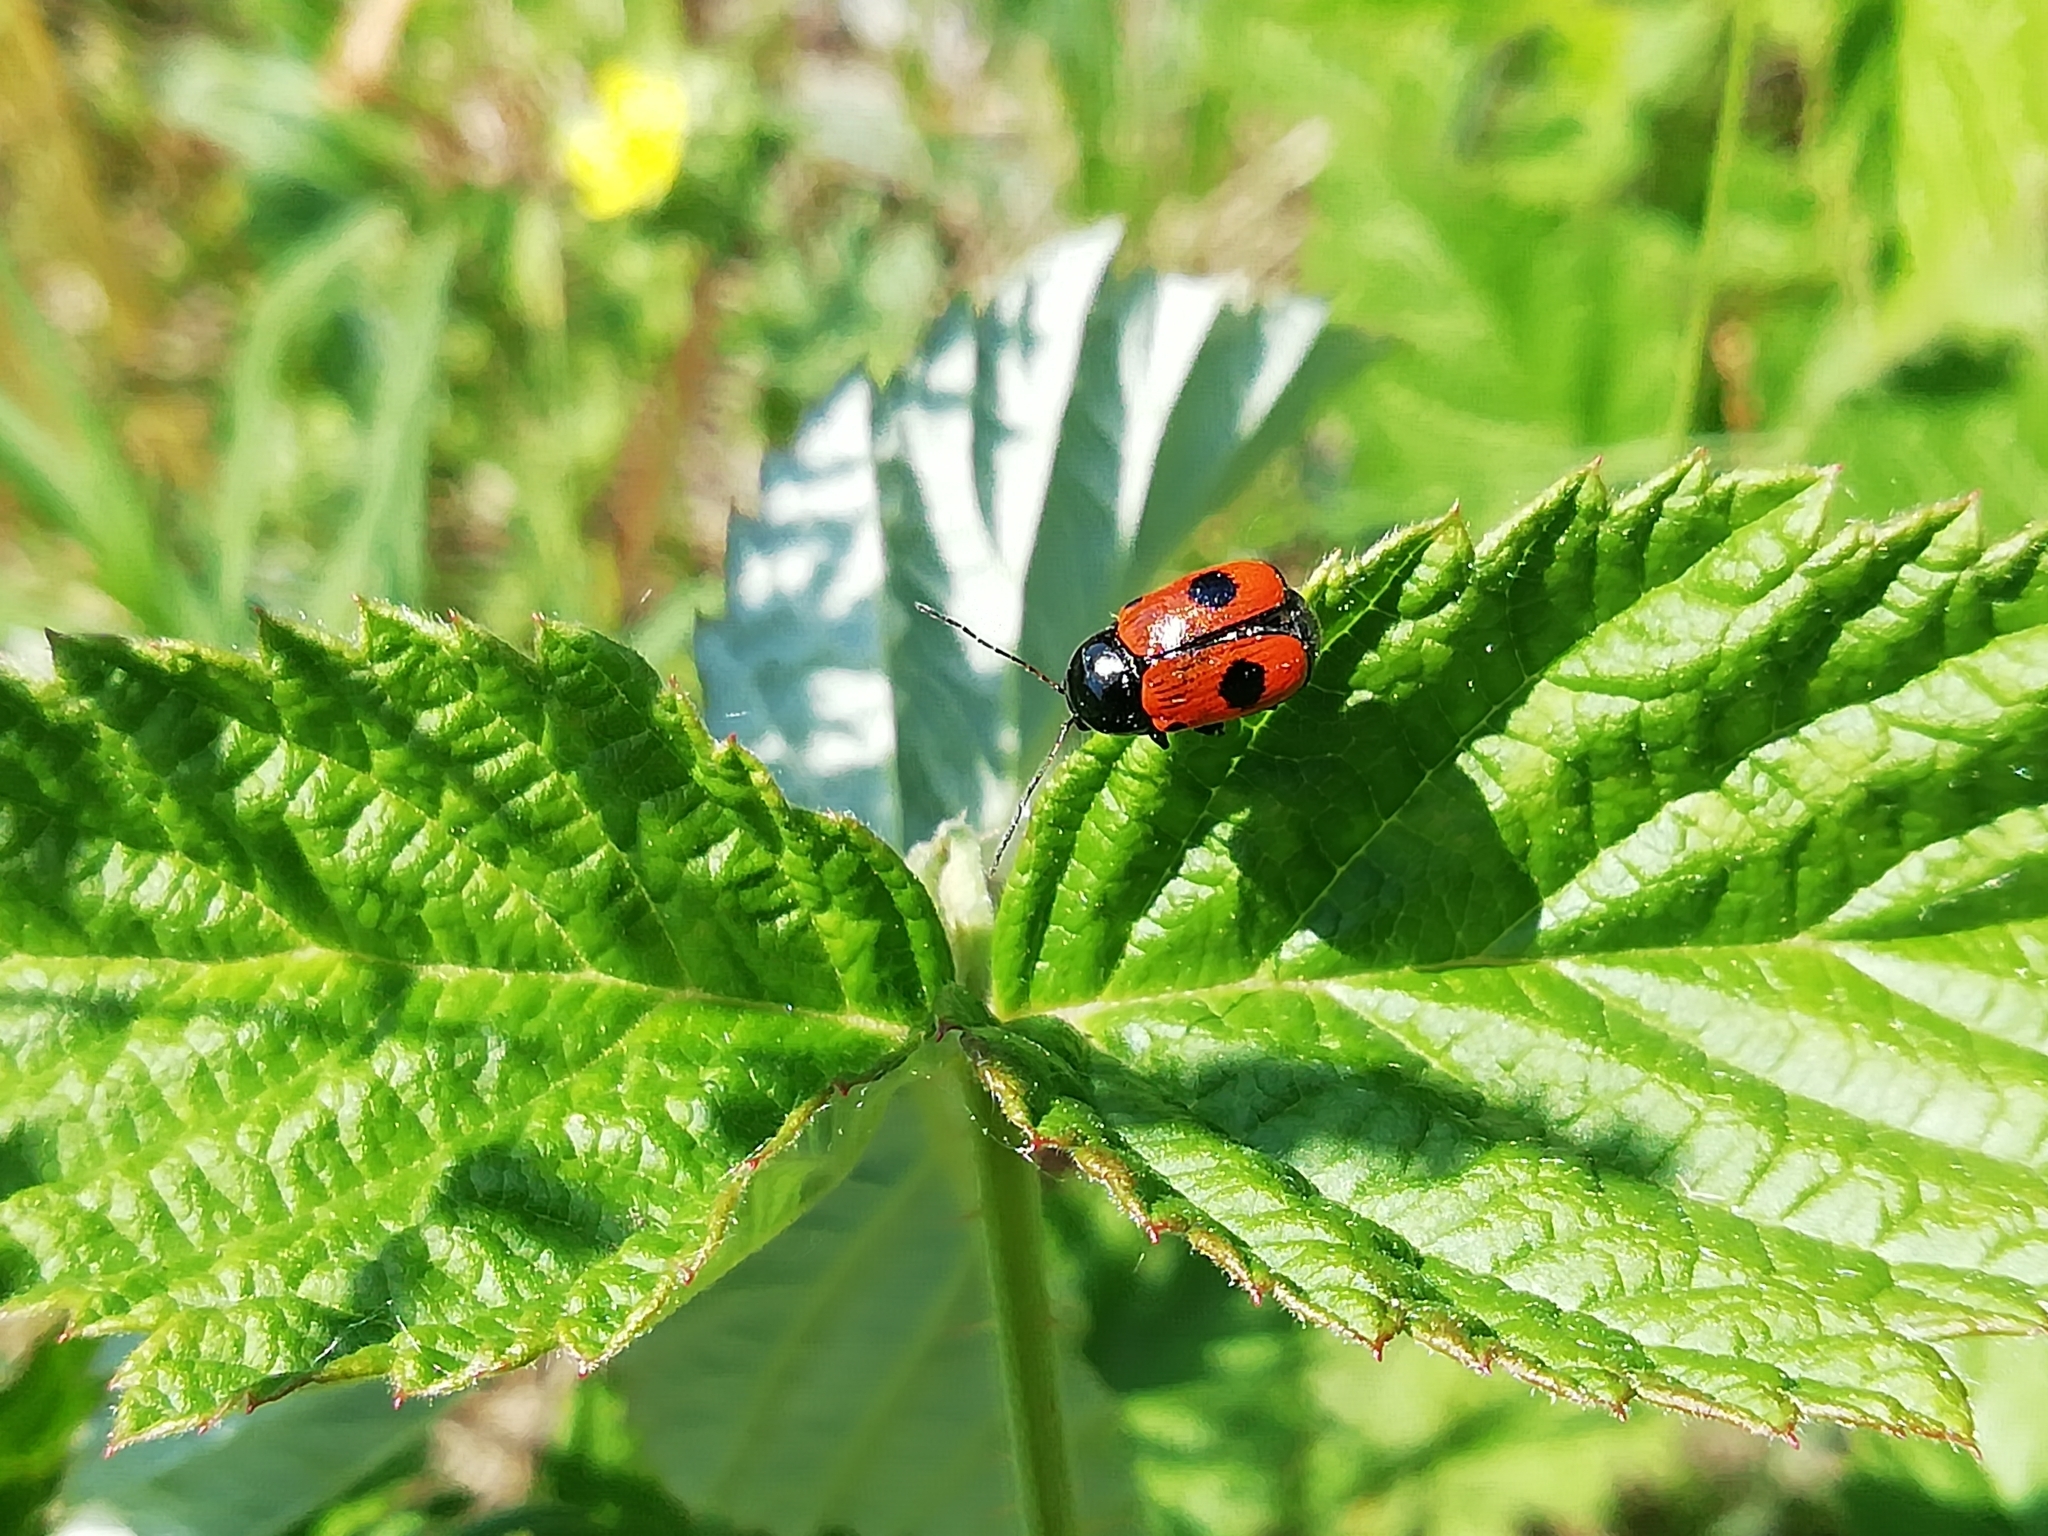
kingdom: Animalia
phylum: Arthropoda
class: Insecta
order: Coleoptera
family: Chrysomelidae
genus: Chiridopsis
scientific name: Chiridopsis bipunctata
